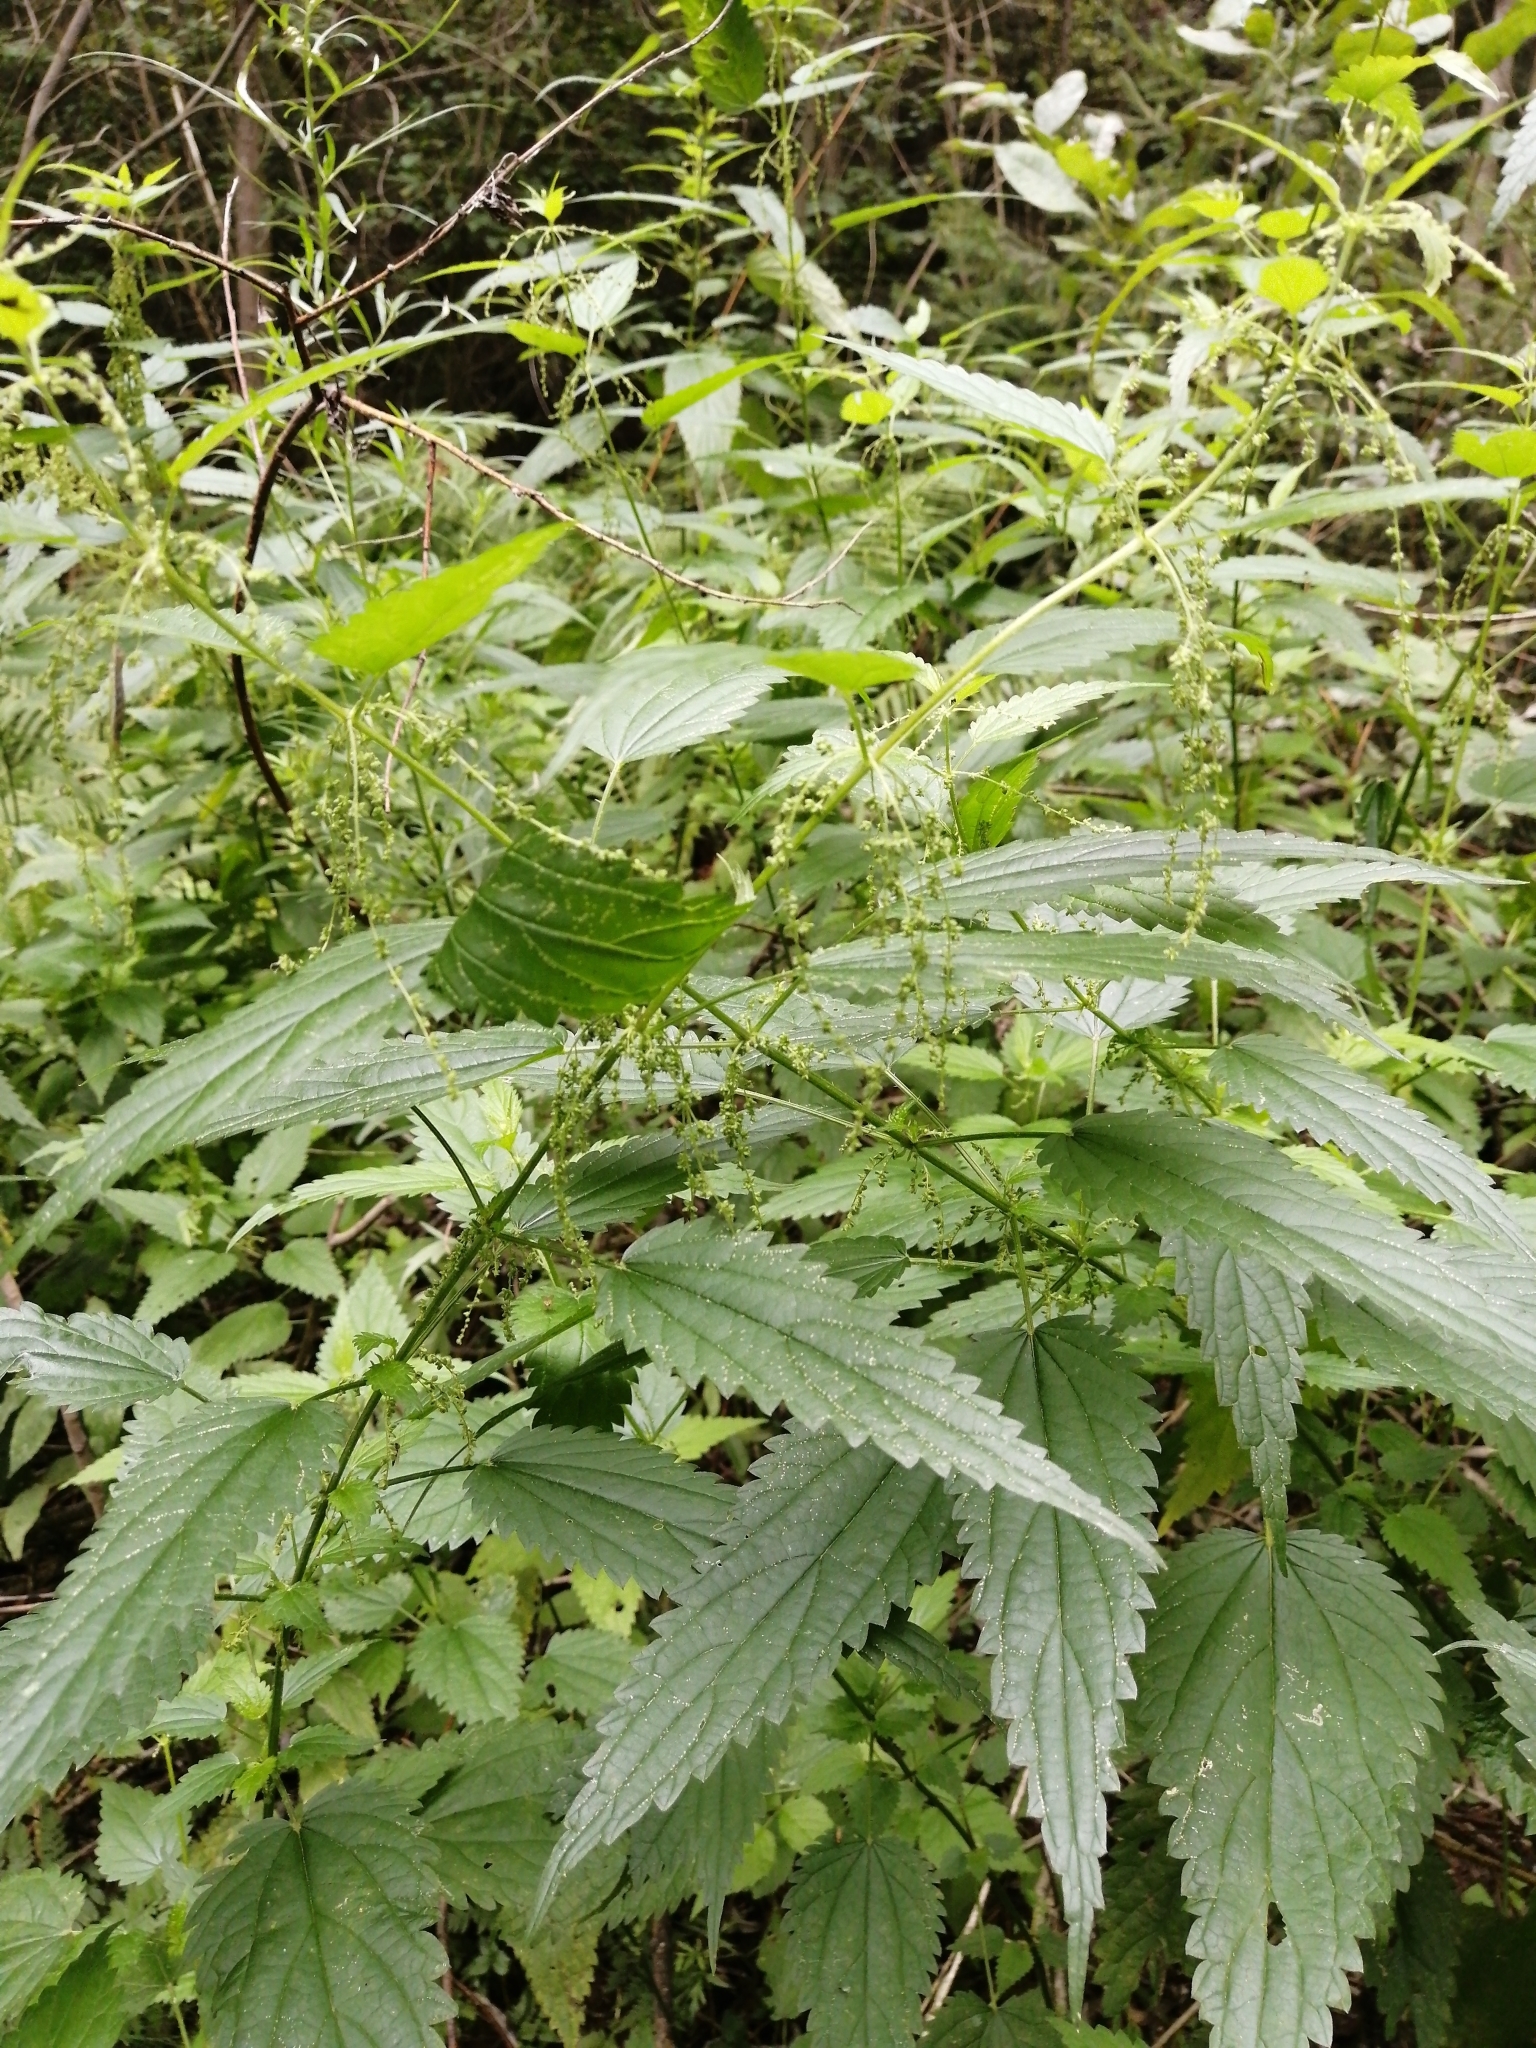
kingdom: Plantae
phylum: Tracheophyta
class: Magnoliopsida
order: Rosales
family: Urticaceae
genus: Urtica
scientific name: Urtica dioica
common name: Common nettle
